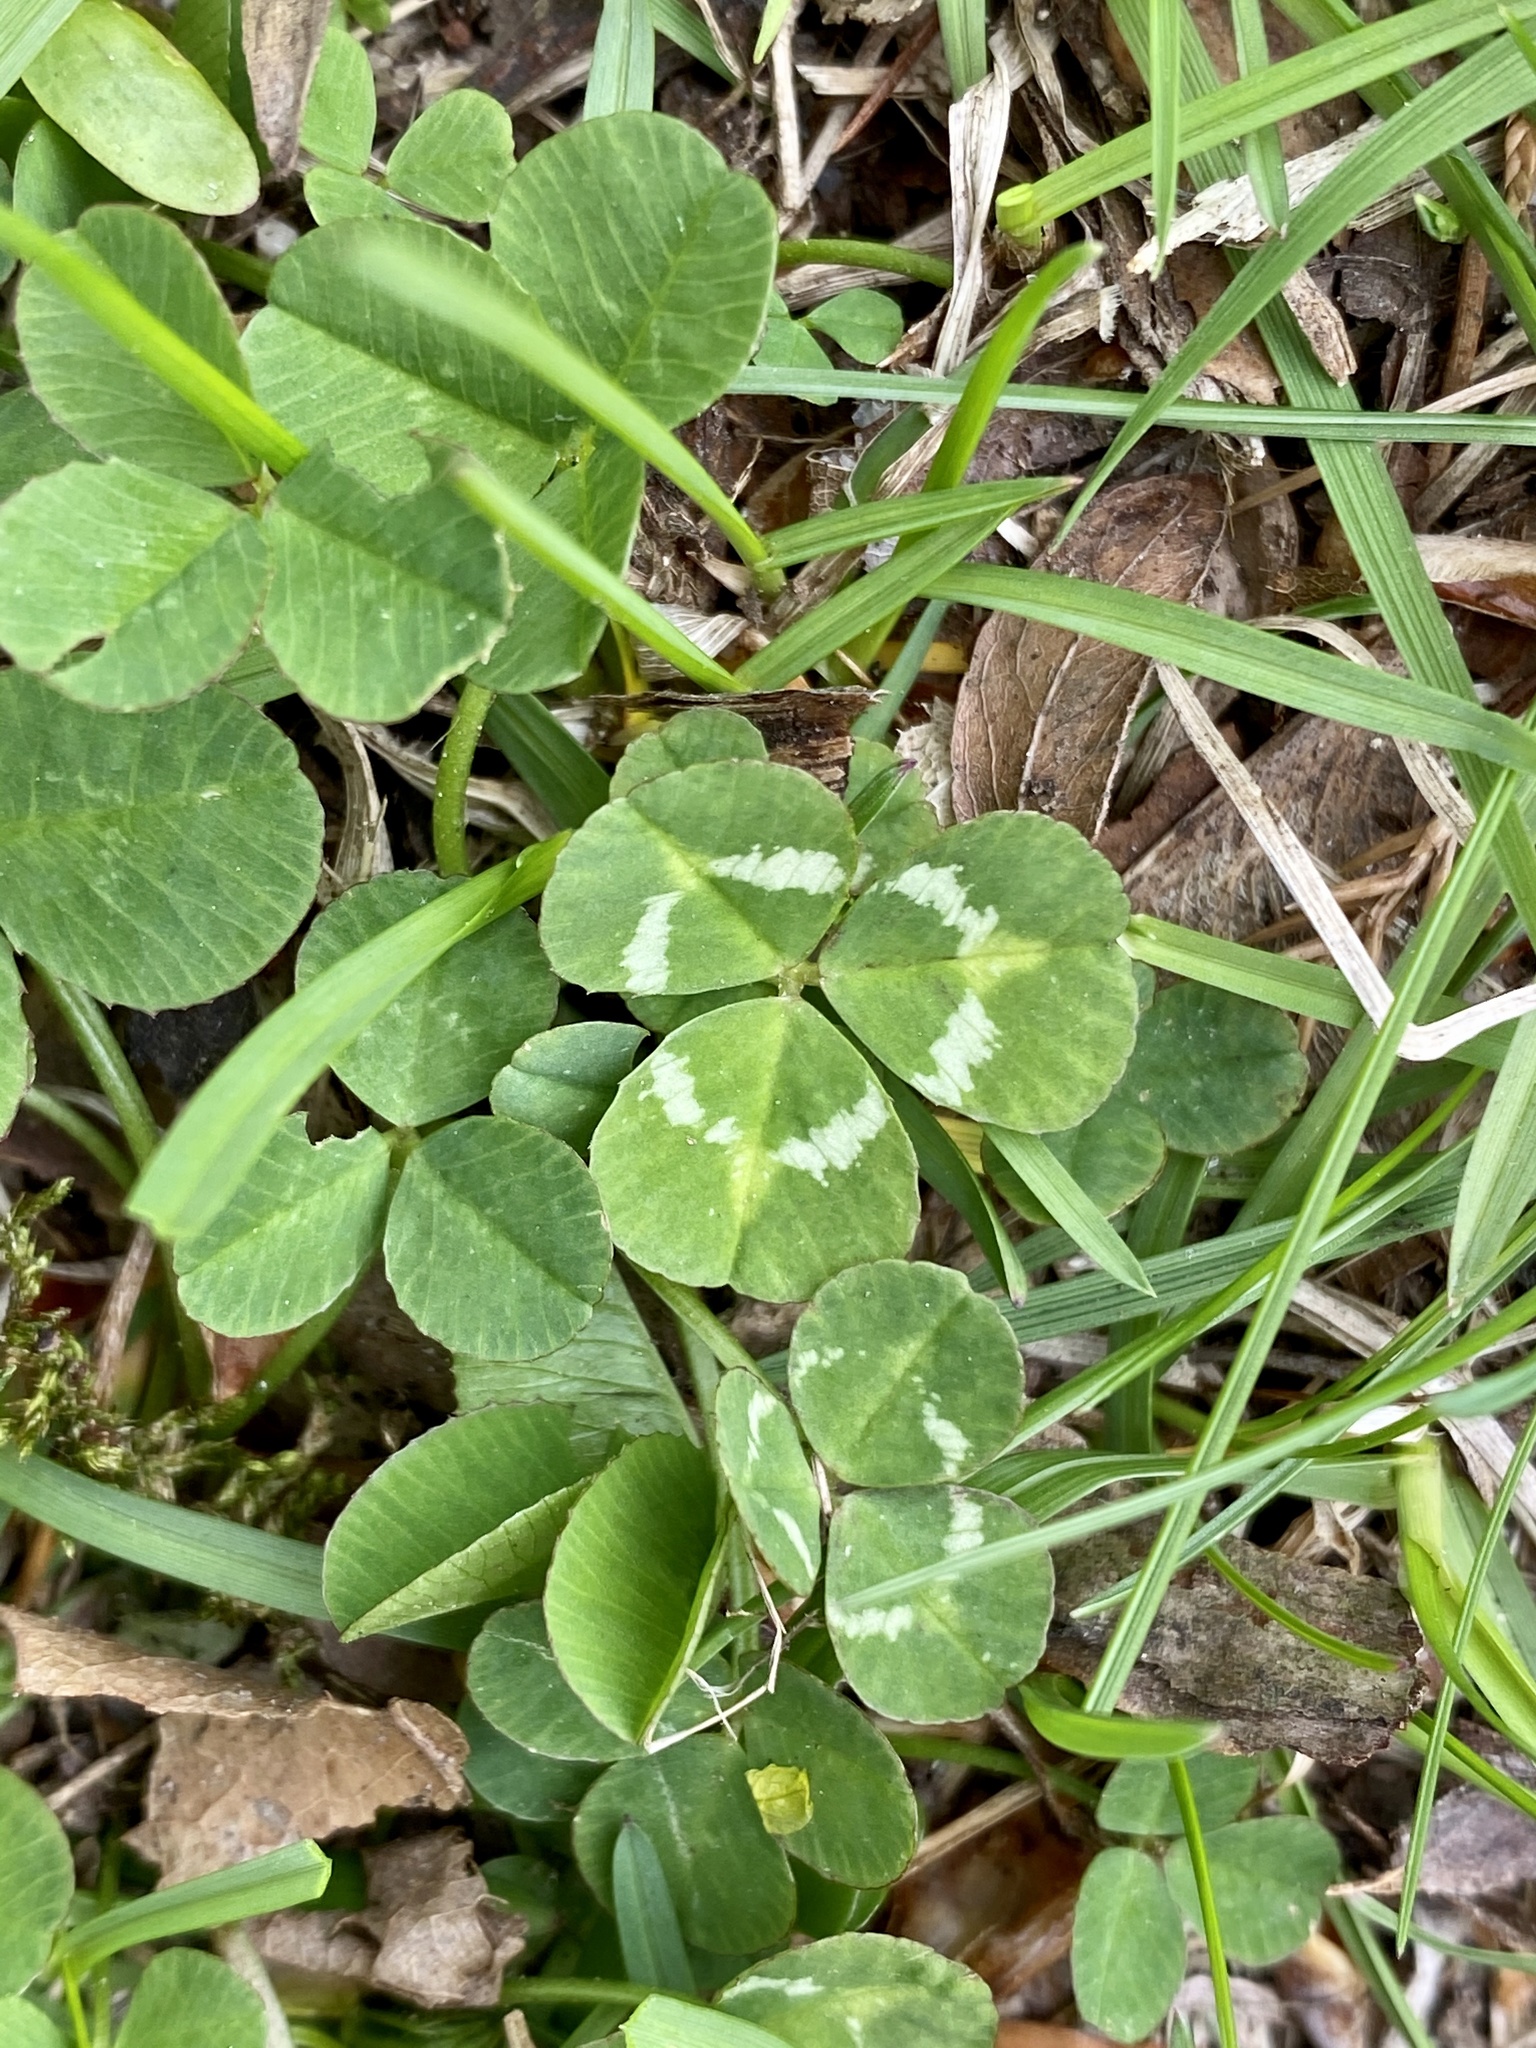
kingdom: Plantae
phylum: Tracheophyta
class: Magnoliopsida
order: Fabales
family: Fabaceae
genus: Trifolium
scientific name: Trifolium repens
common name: White clover
